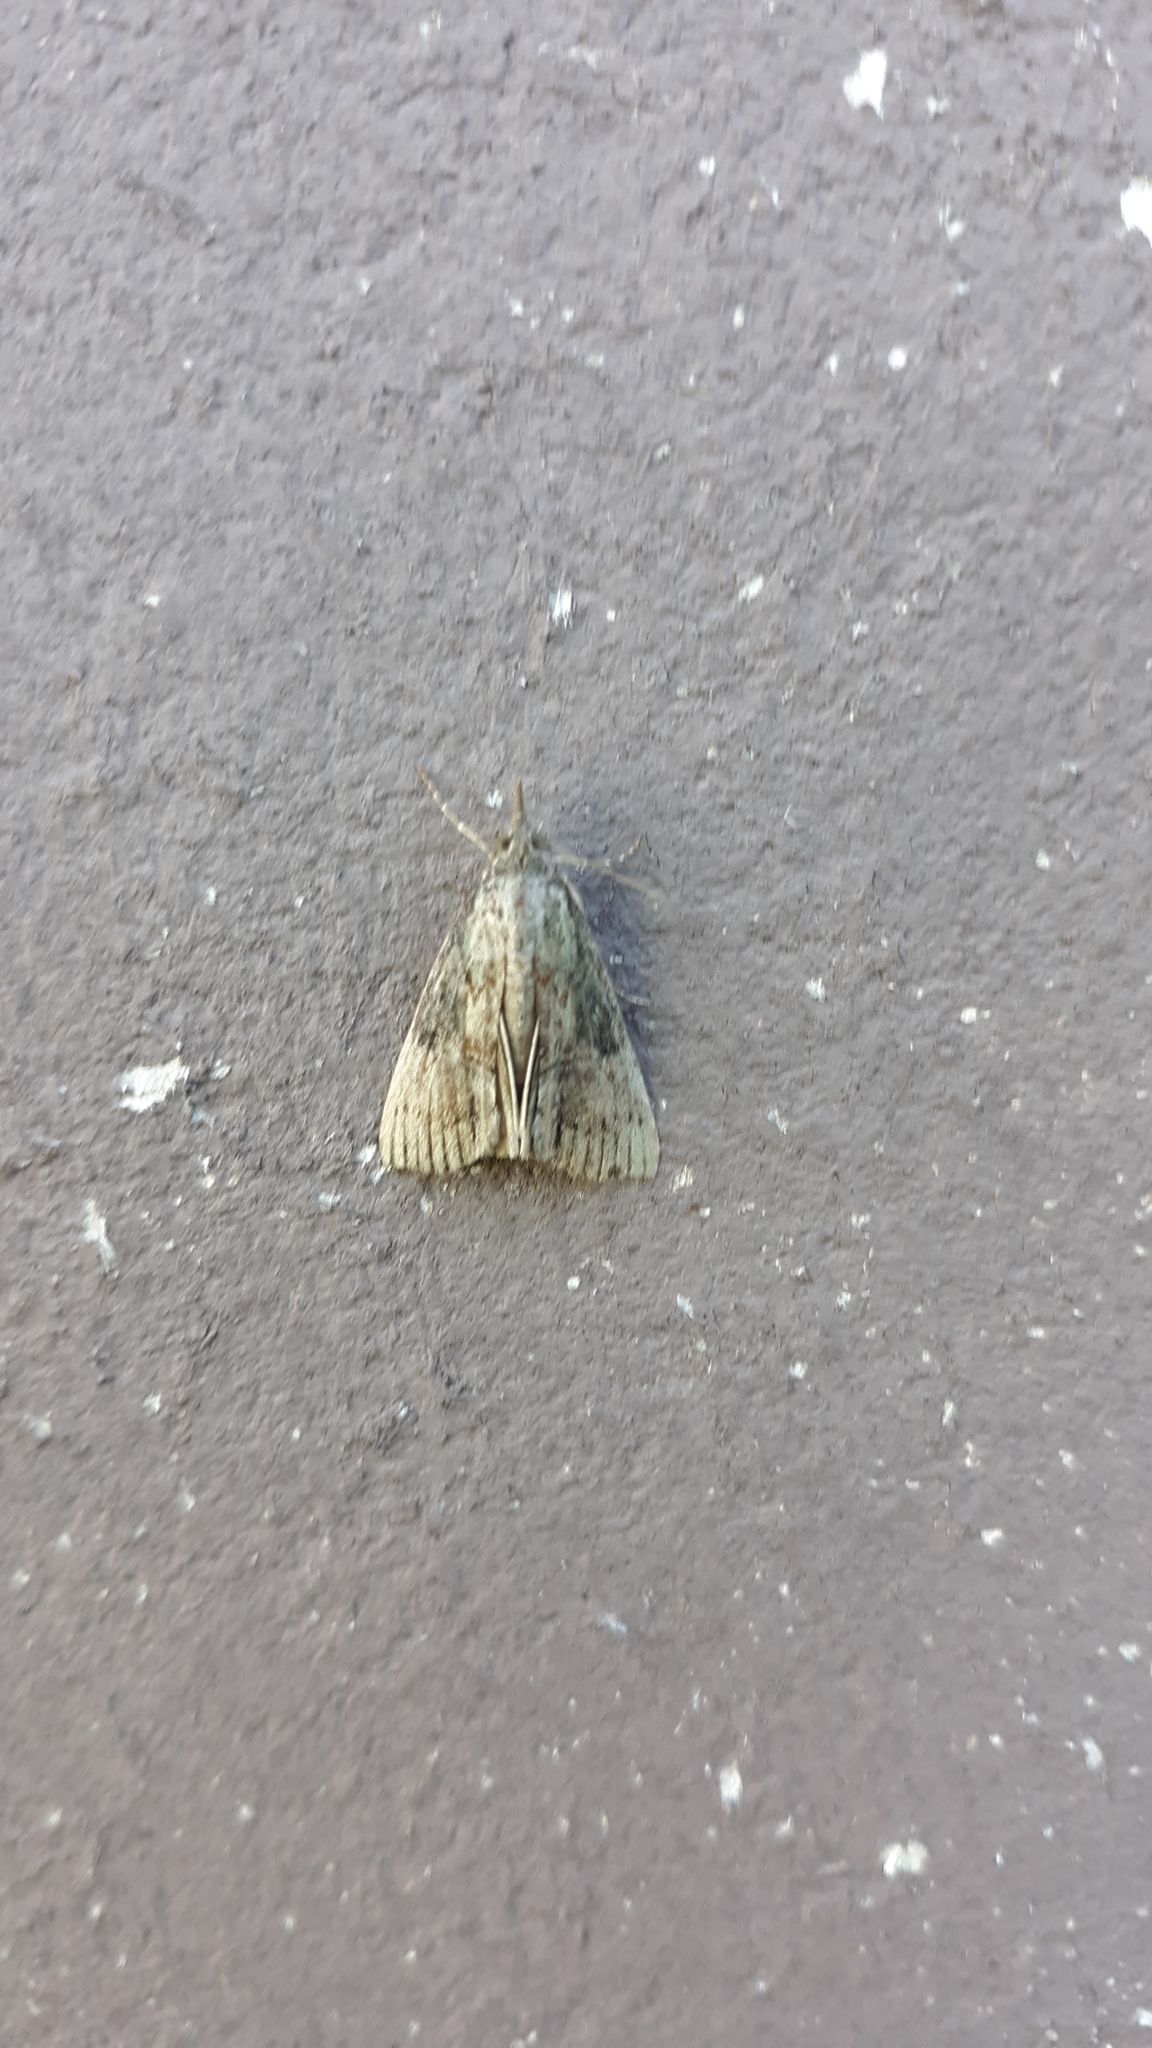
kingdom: Animalia
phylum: Arthropoda
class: Insecta
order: Lepidoptera
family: Erebidae
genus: Hypena
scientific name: Hypena scabra
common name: Green cloverworm
